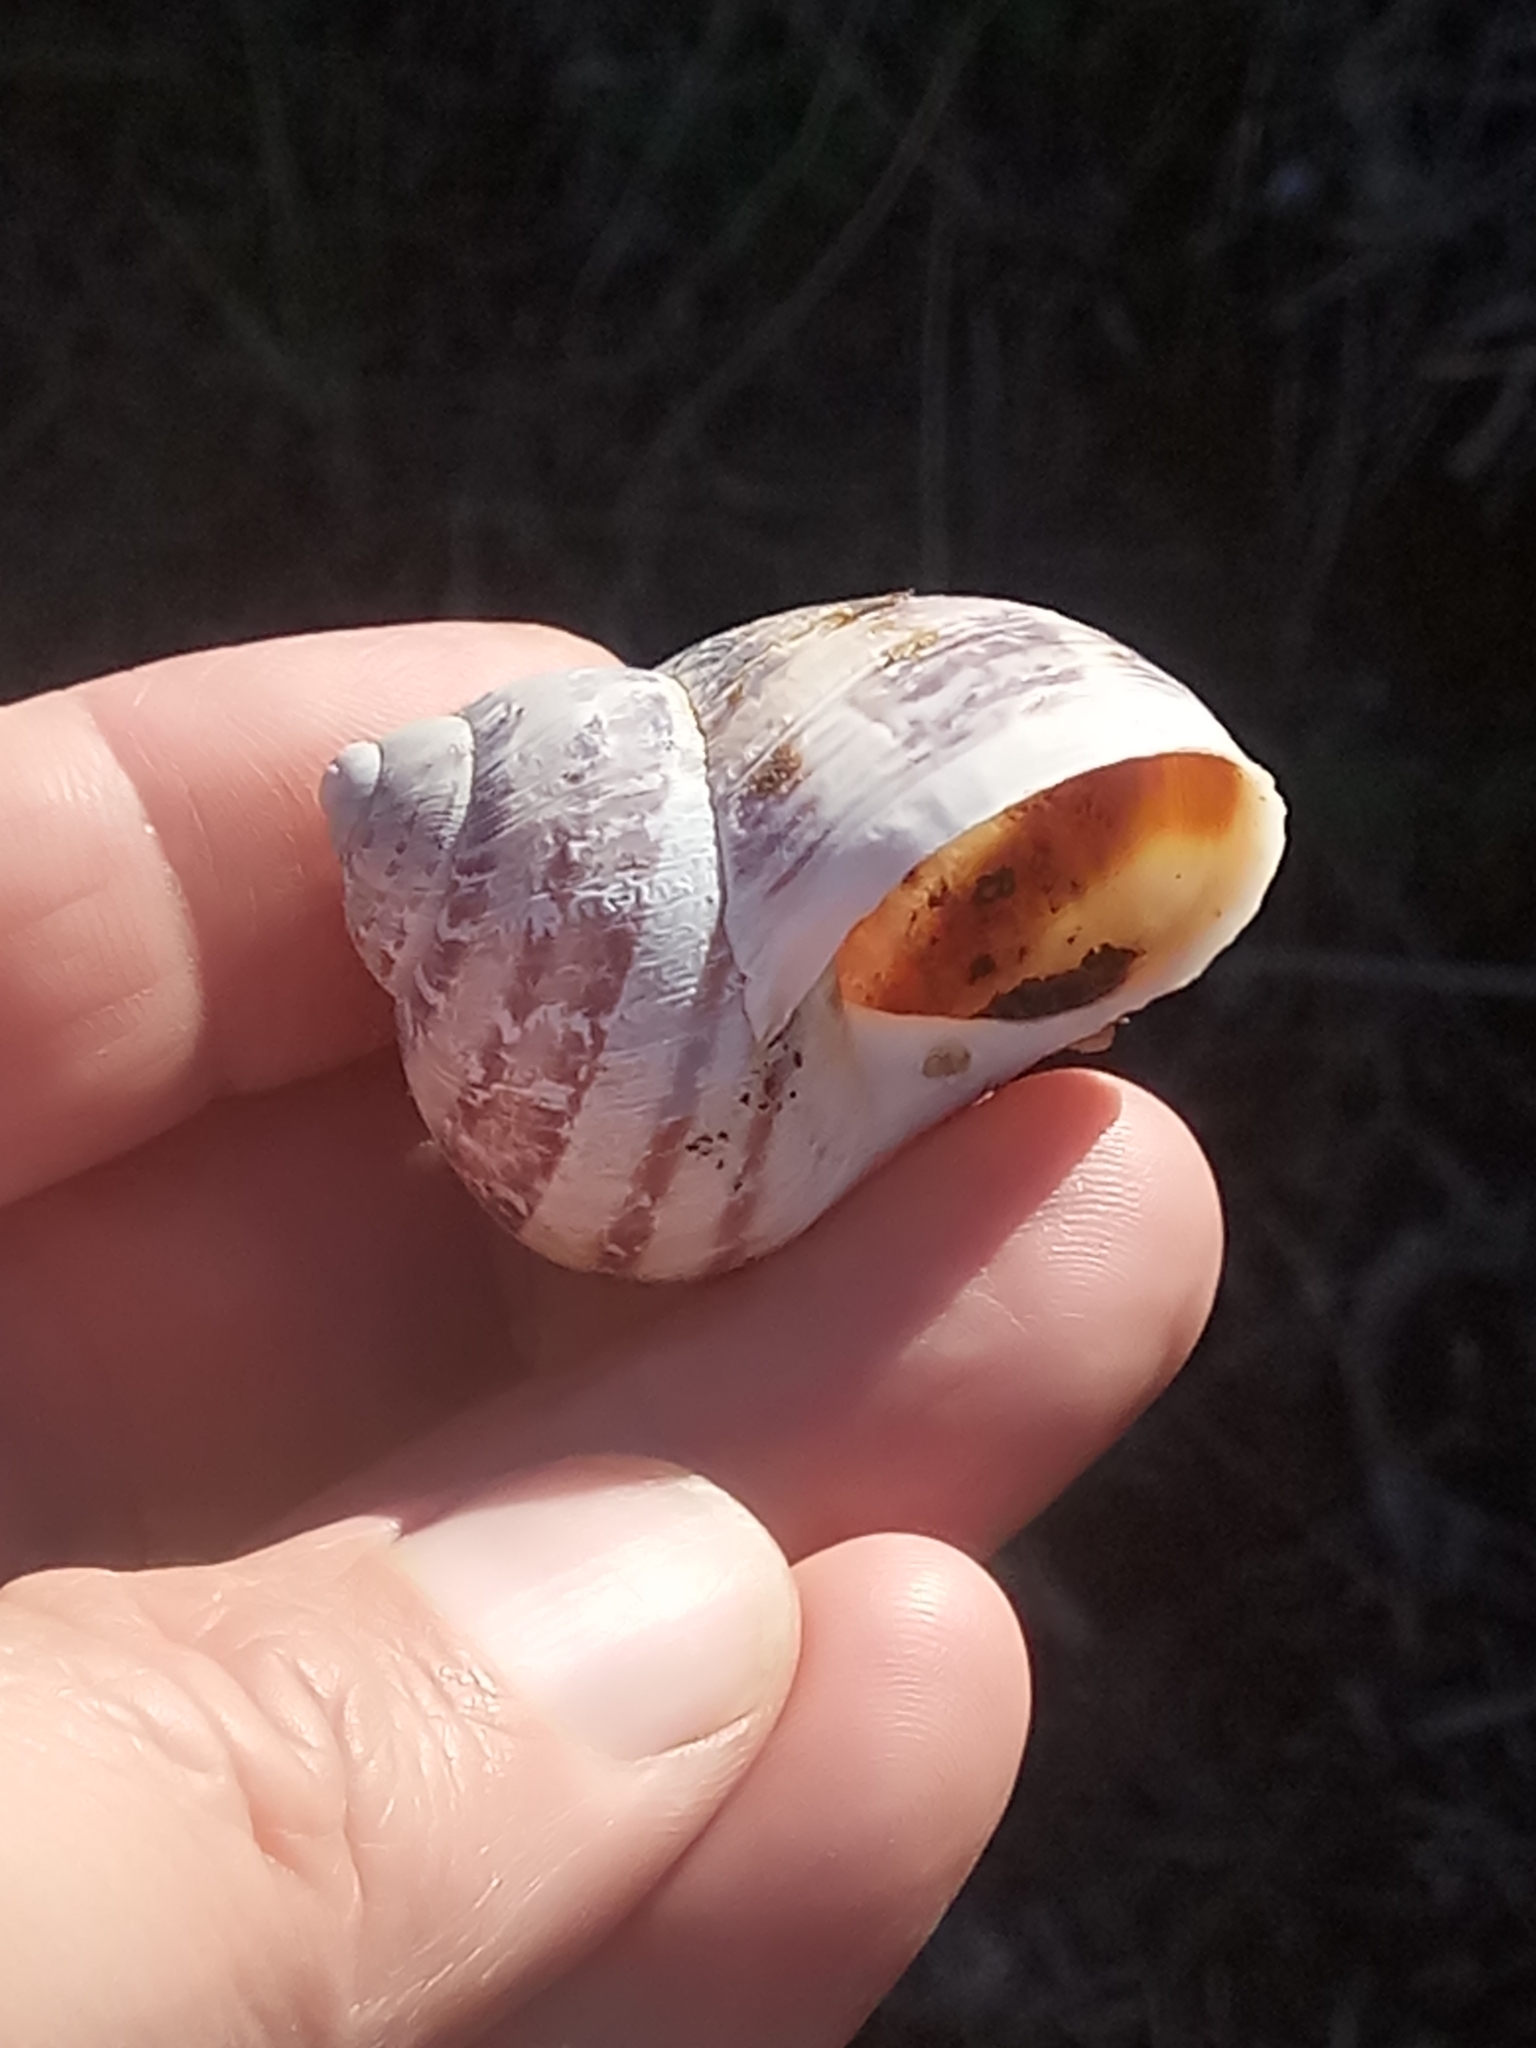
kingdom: Animalia
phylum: Mollusca
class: Gastropoda
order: Stylommatophora
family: Helicidae
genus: Cornu
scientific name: Cornu aspersum
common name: Brown garden snail
